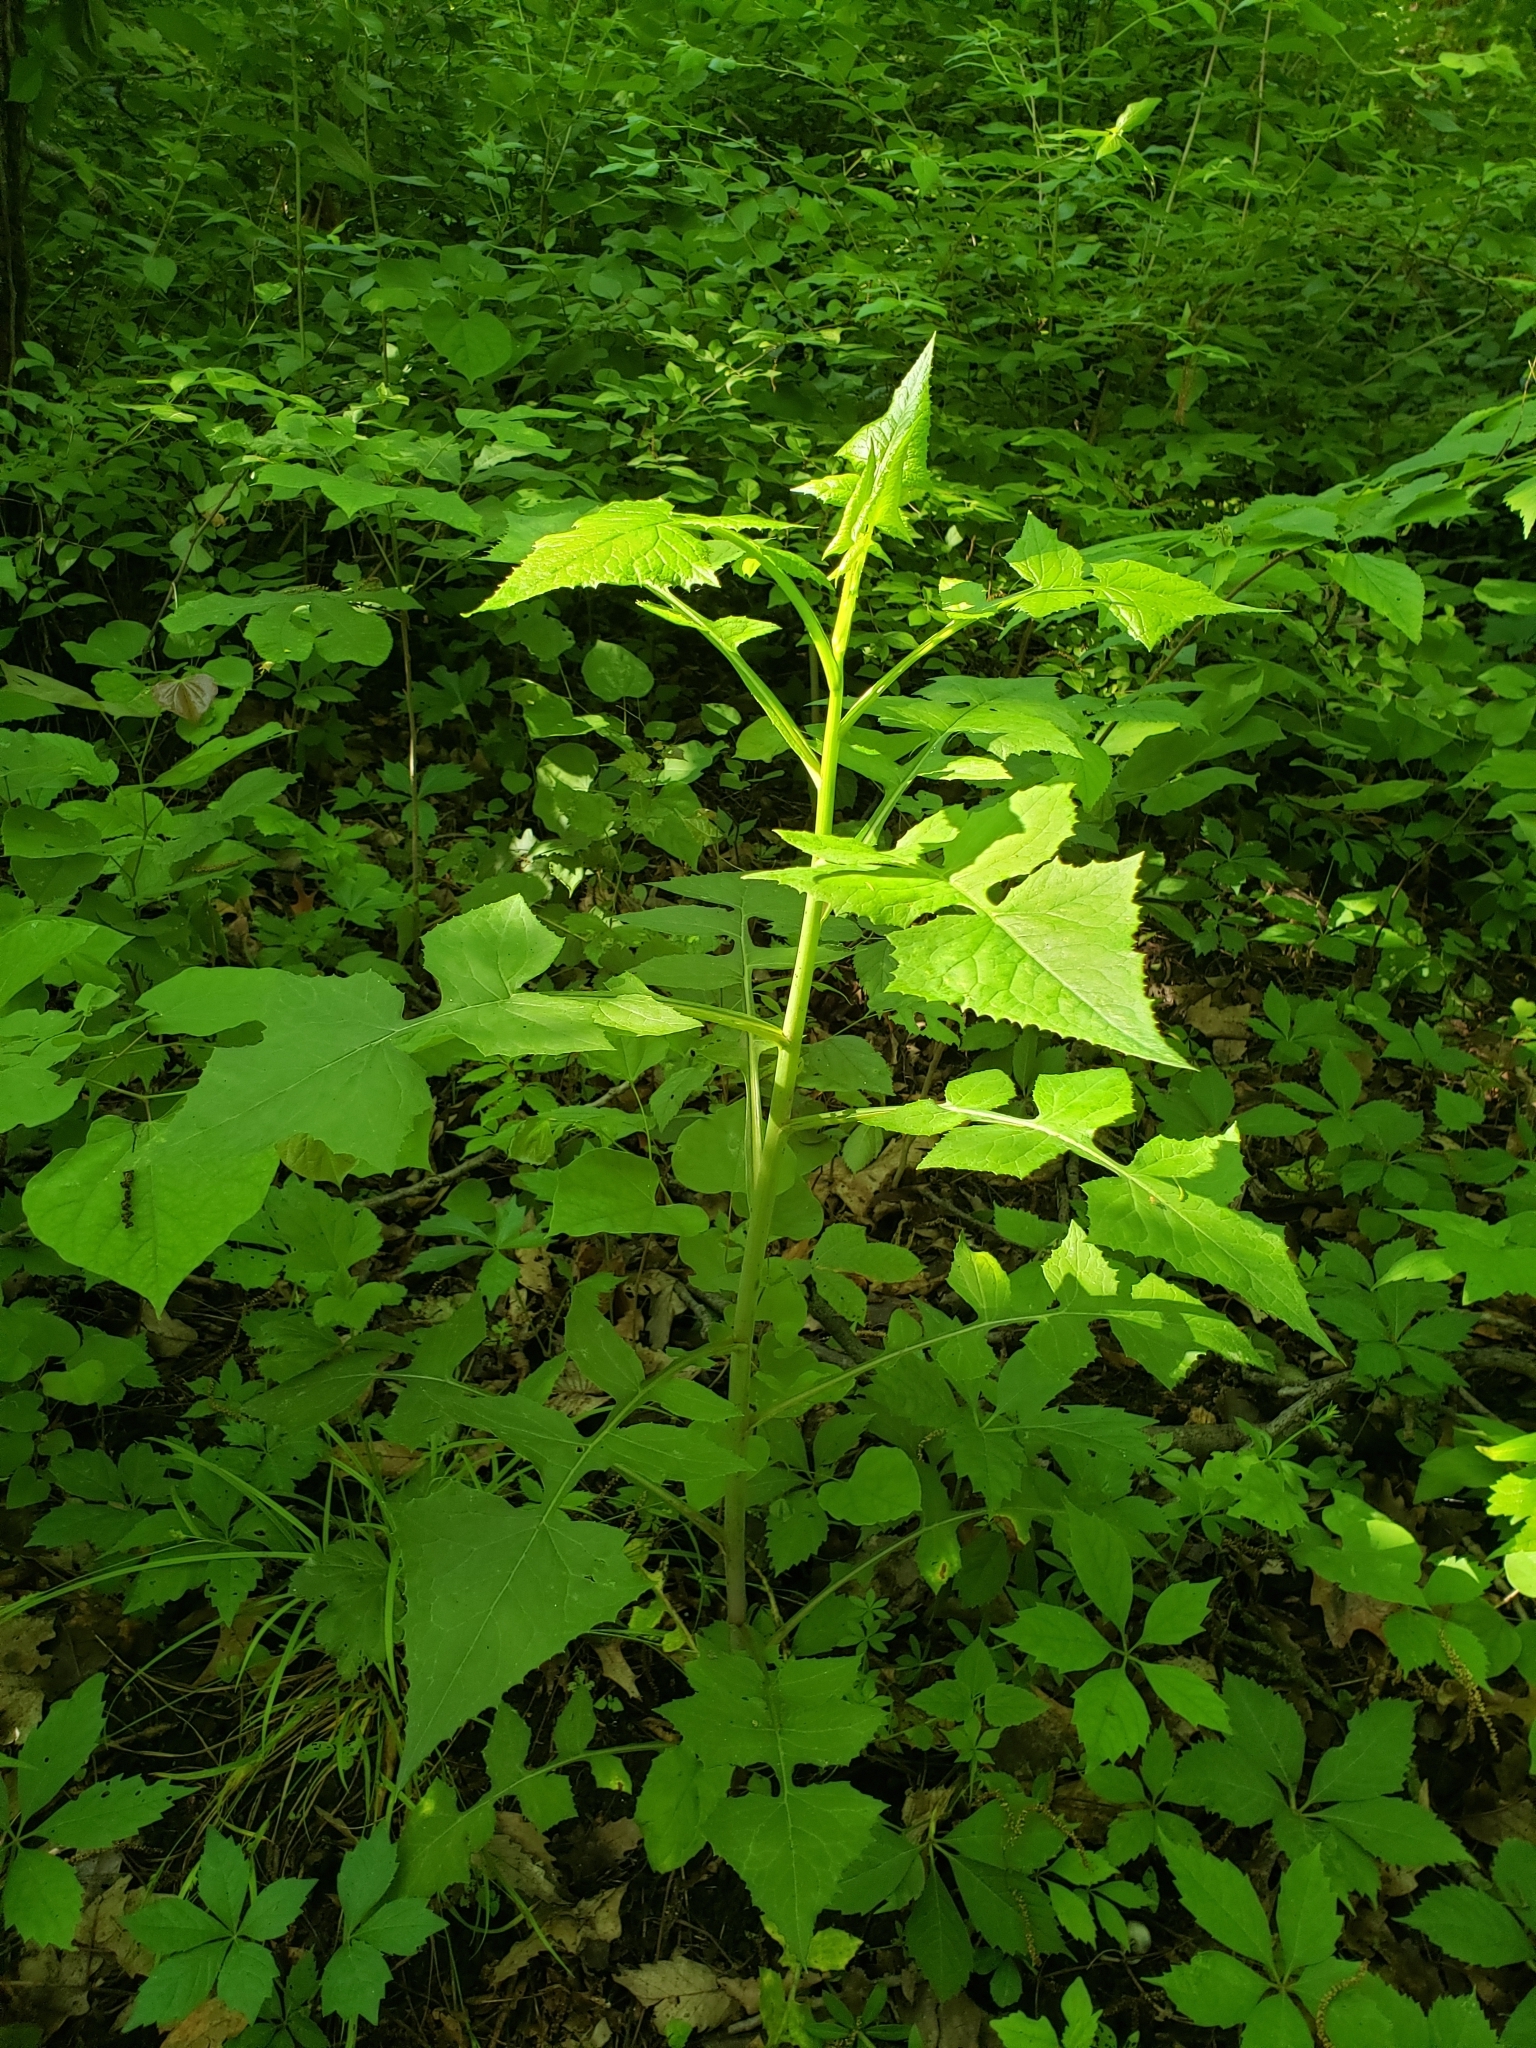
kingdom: Plantae
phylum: Tracheophyta
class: Magnoliopsida
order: Asterales
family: Asteraceae
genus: Lactuca
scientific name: Lactuca floridana
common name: Woodland lettuce
